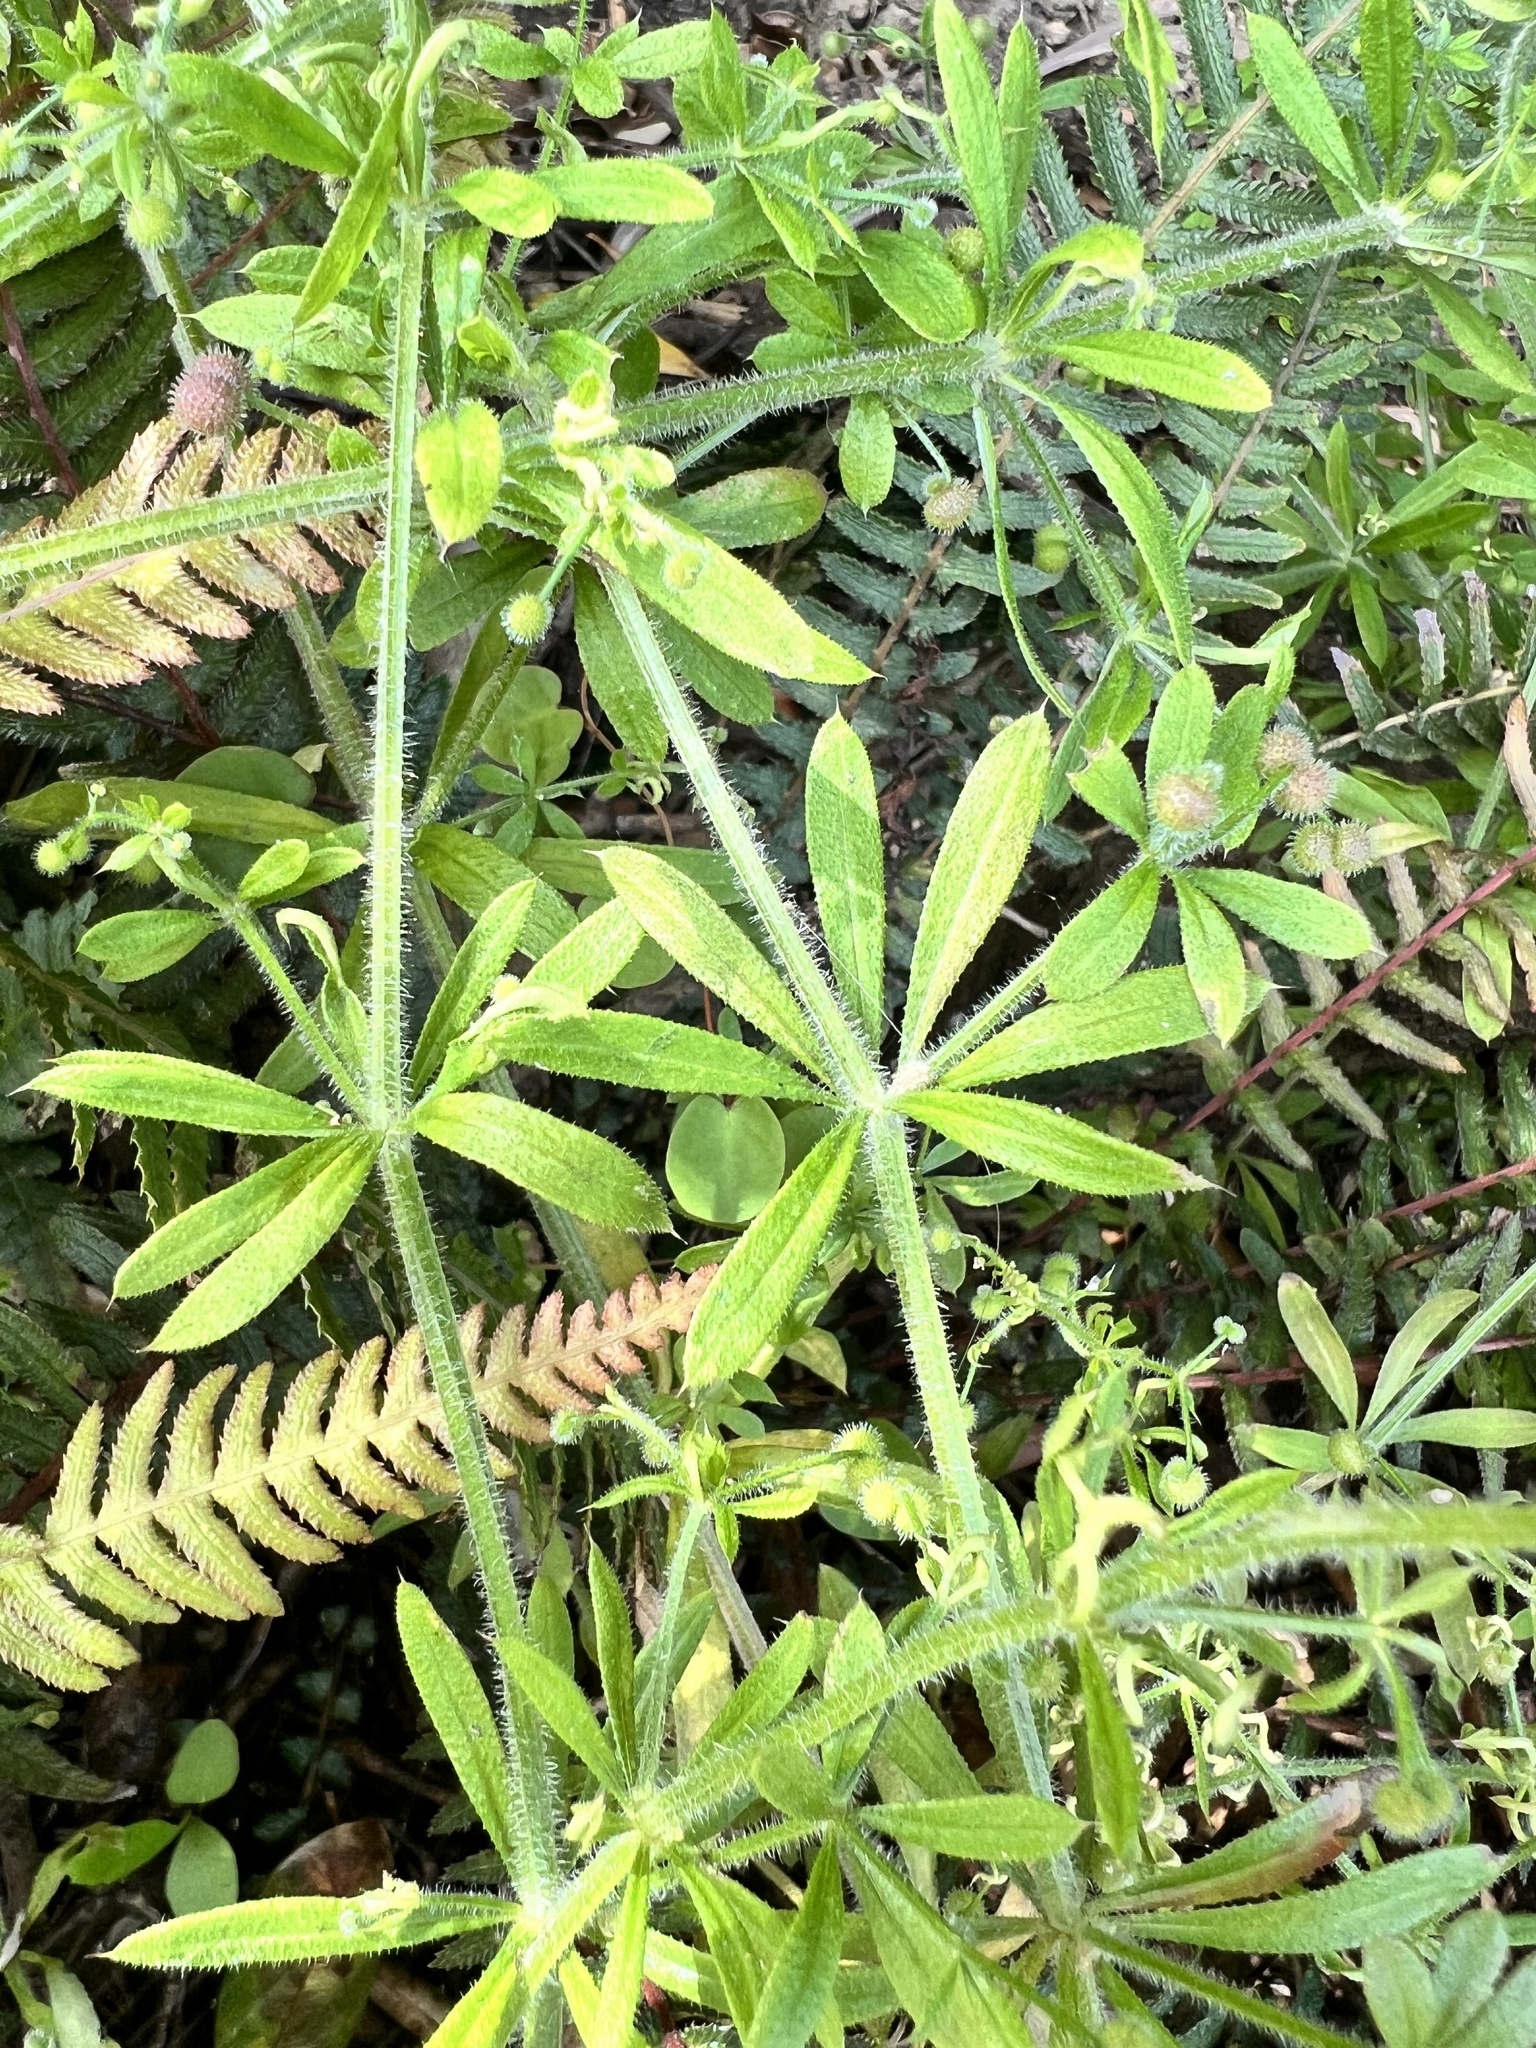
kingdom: Plantae
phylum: Tracheophyta
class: Magnoliopsida
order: Gentianales
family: Rubiaceae
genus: Galium
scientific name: Galium aparine
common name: Cleavers
